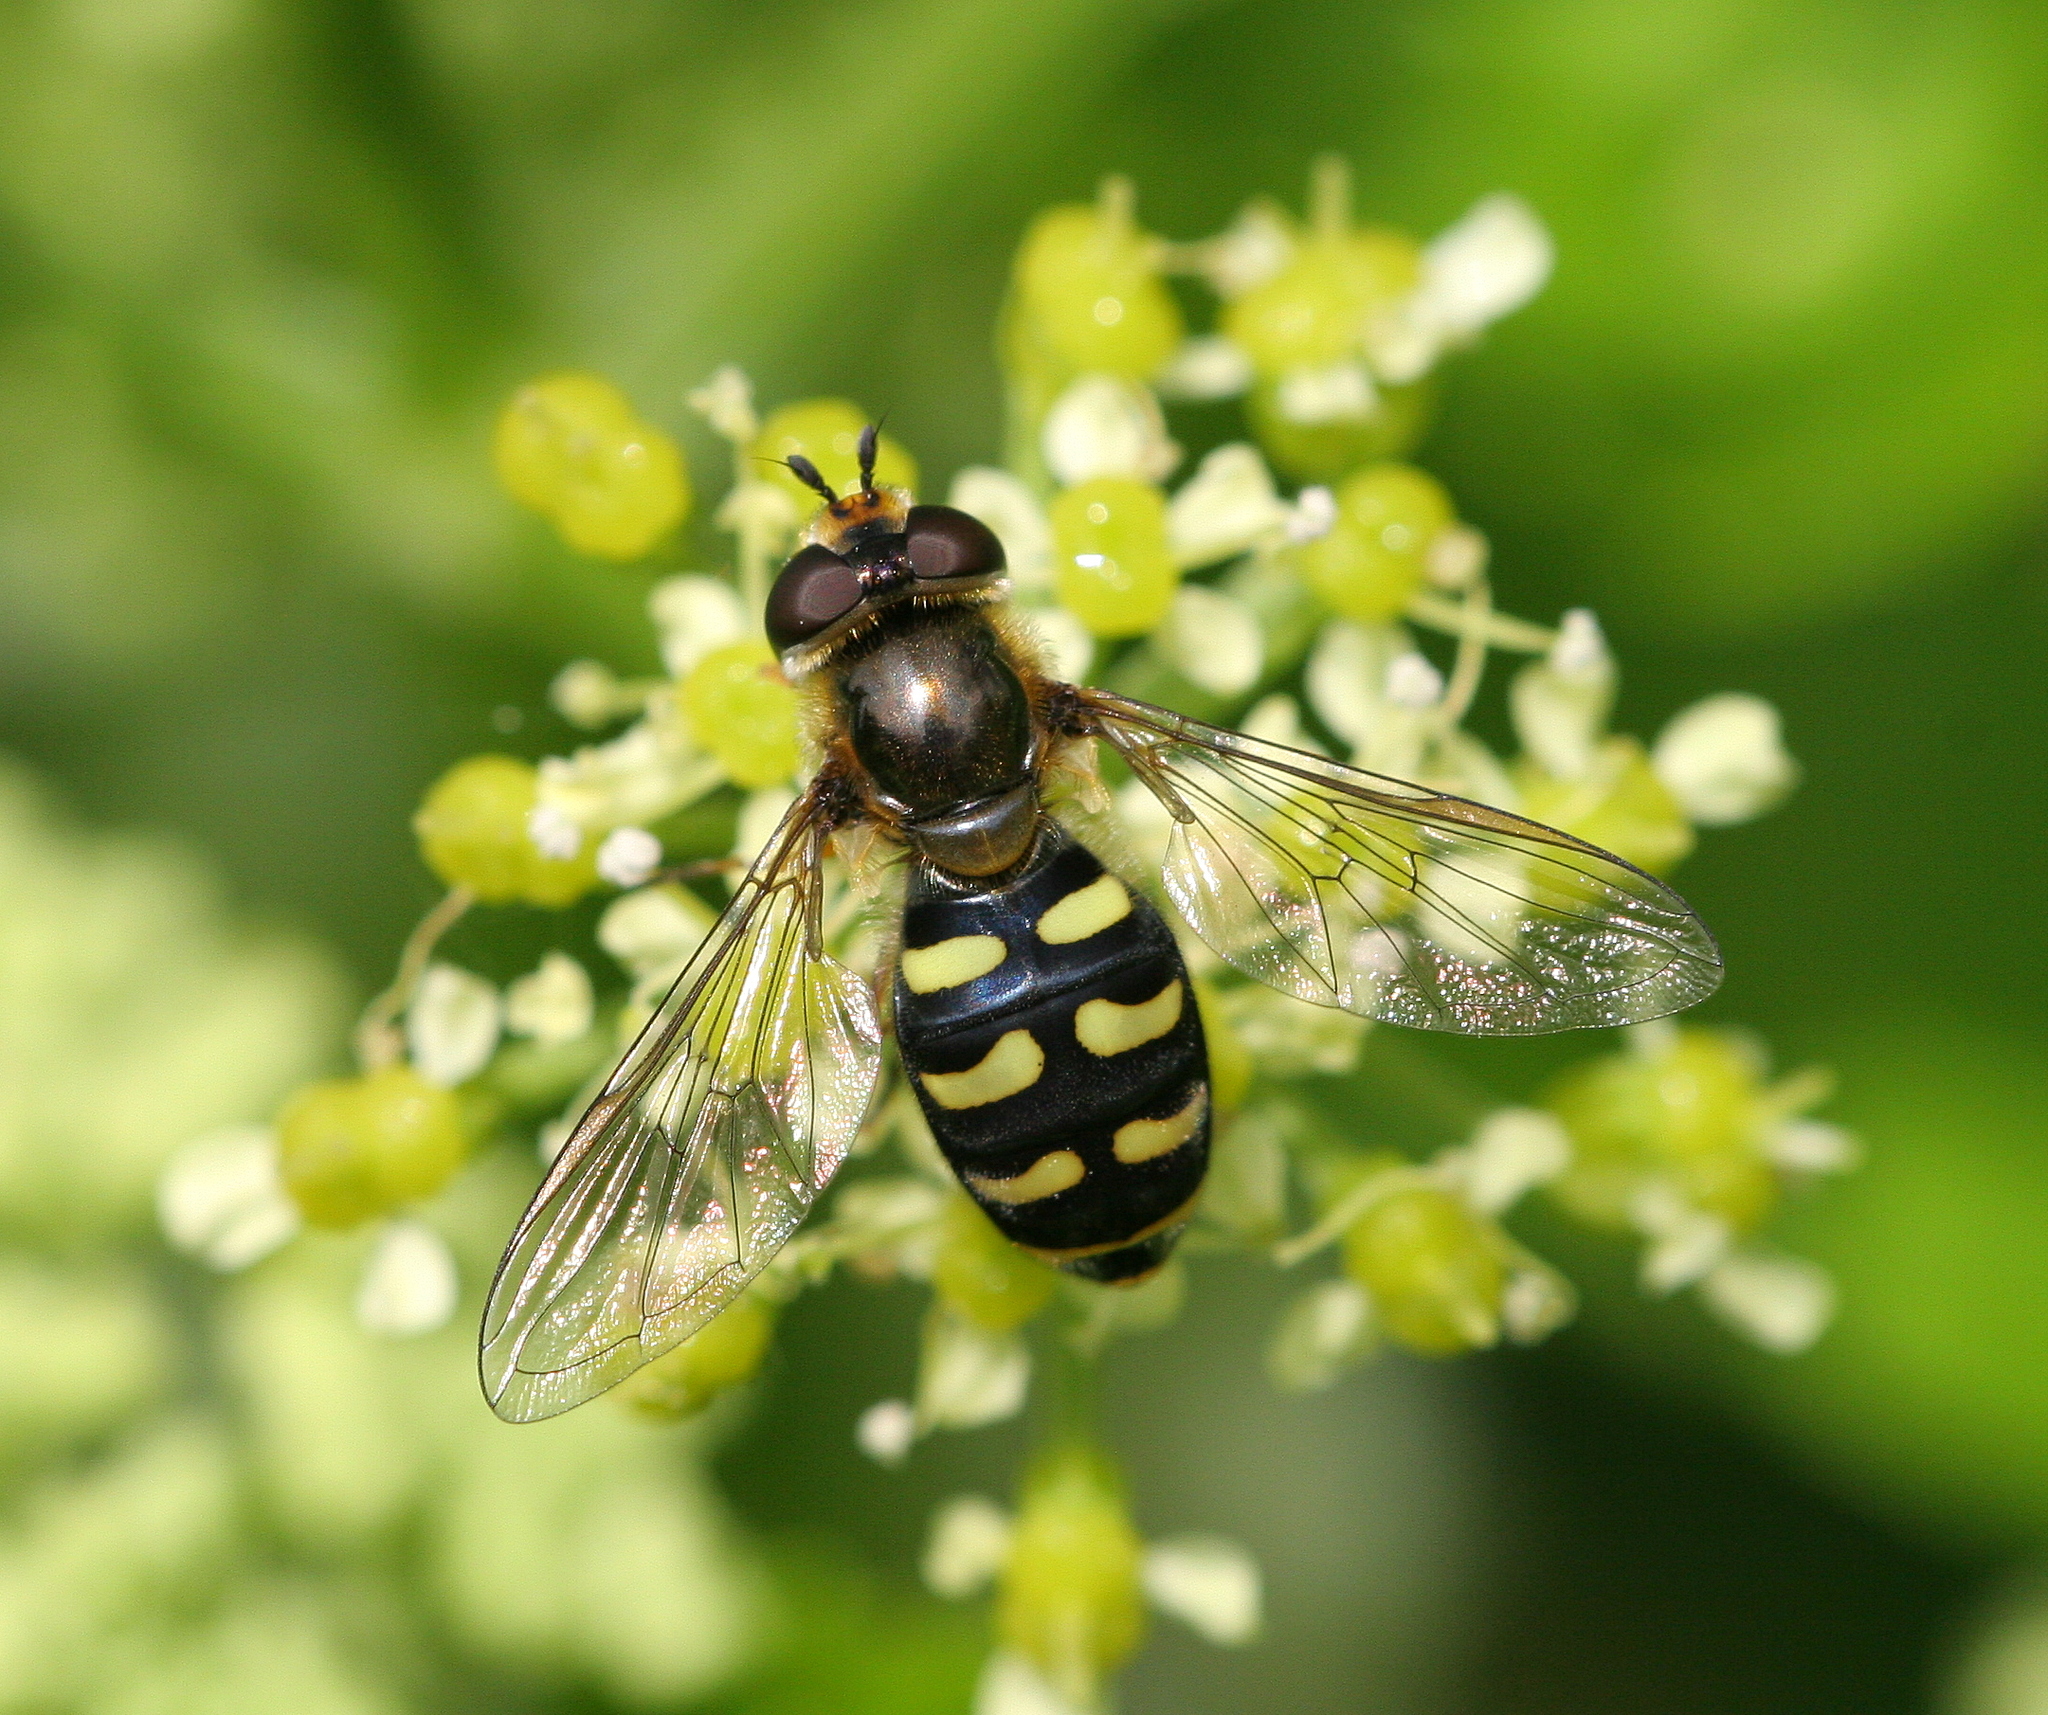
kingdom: Animalia
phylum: Arthropoda
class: Insecta
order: Diptera
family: Syrphidae
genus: Eupeodes
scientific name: Eupeodes luniger
